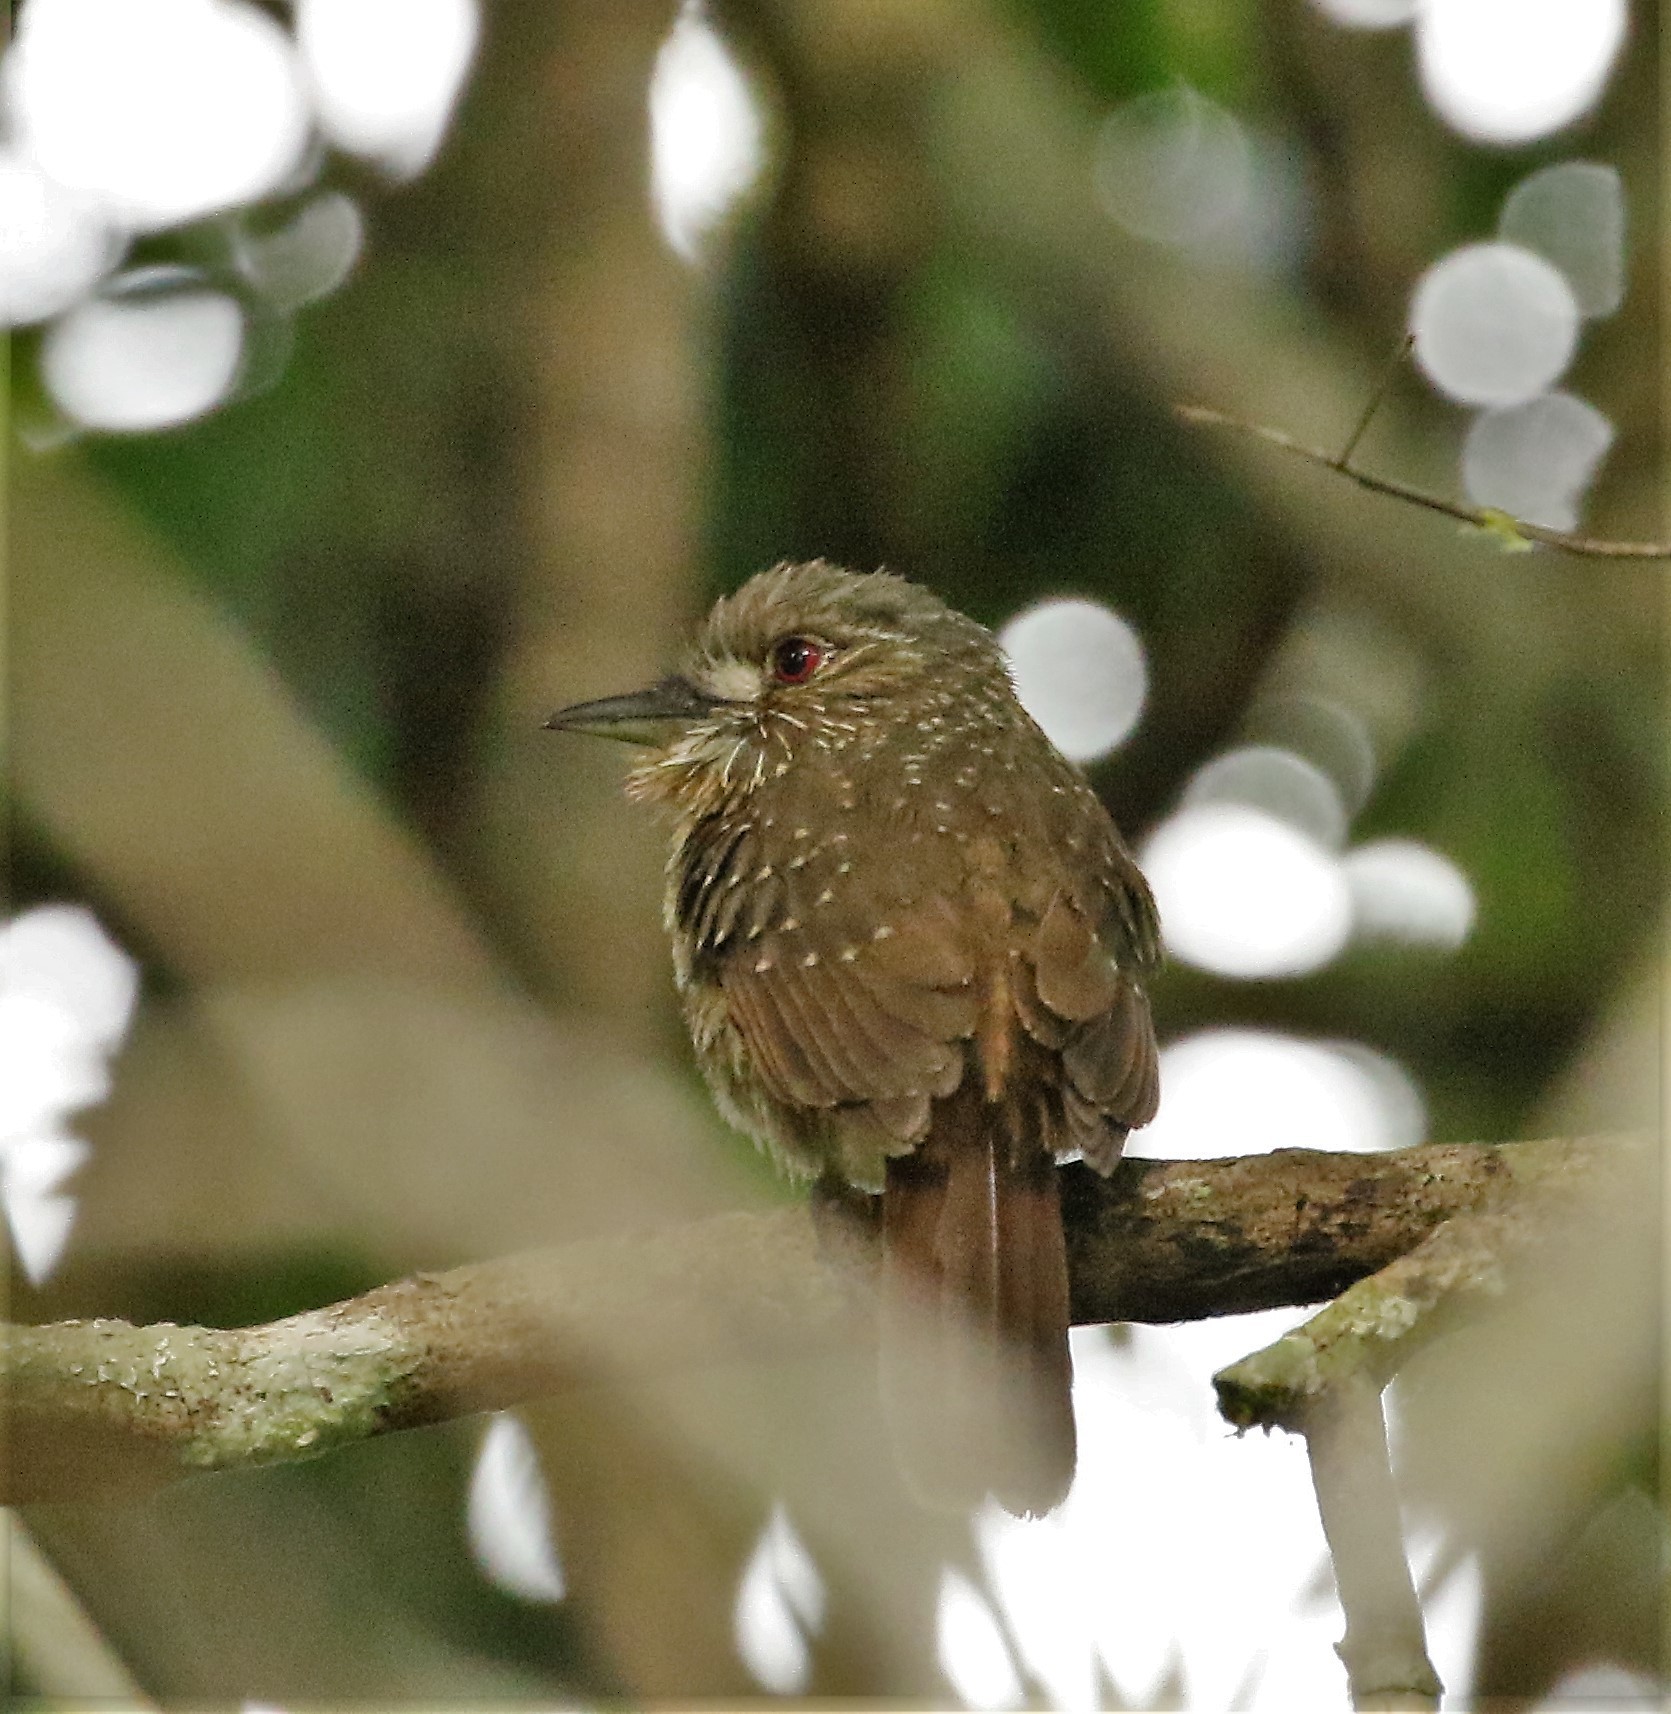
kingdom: Animalia
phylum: Chordata
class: Aves
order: Piciformes
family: Bucconidae
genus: Malacoptila
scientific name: Malacoptila panamensis
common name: White-whiskered puffbird
